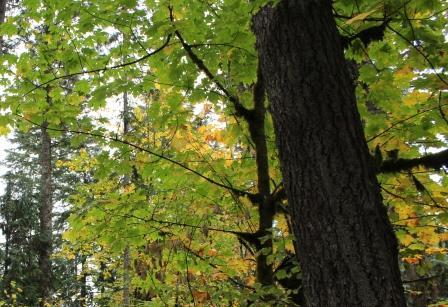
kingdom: Plantae
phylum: Tracheophyta
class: Magnoliopsida
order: Sapindales
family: Sapindaceae
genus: Acer
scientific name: Acer macrophyllum
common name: Oregon maple
